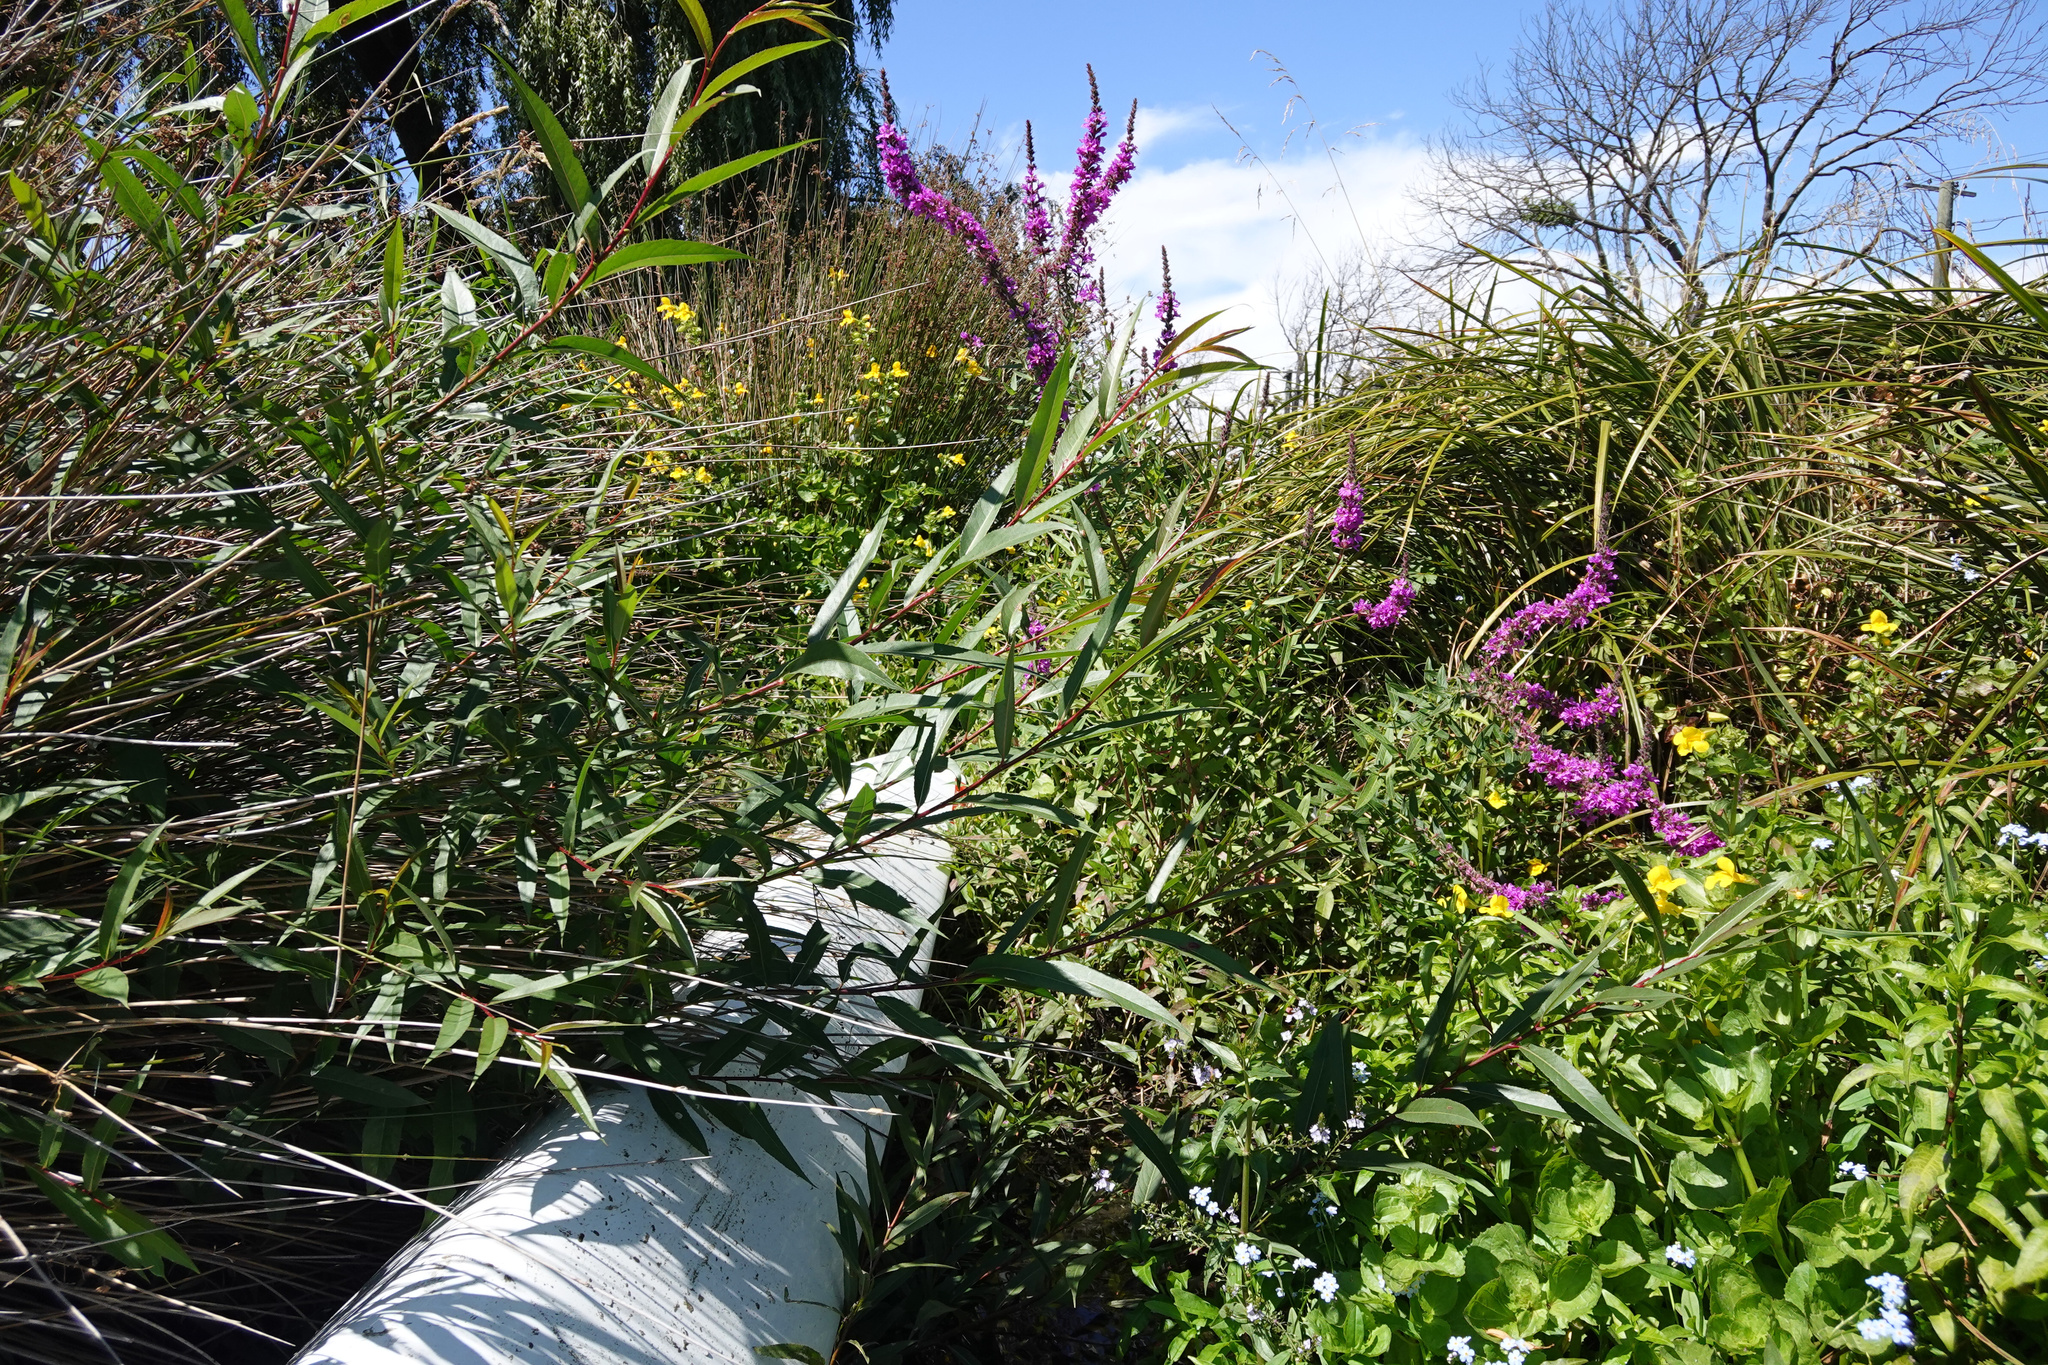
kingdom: Plantae
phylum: Tracheophyta
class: Magnoliopsida
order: Myrtales
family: Lythraceae
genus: Lythrum
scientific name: Lythrum salicaria
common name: Purple loosestrife
